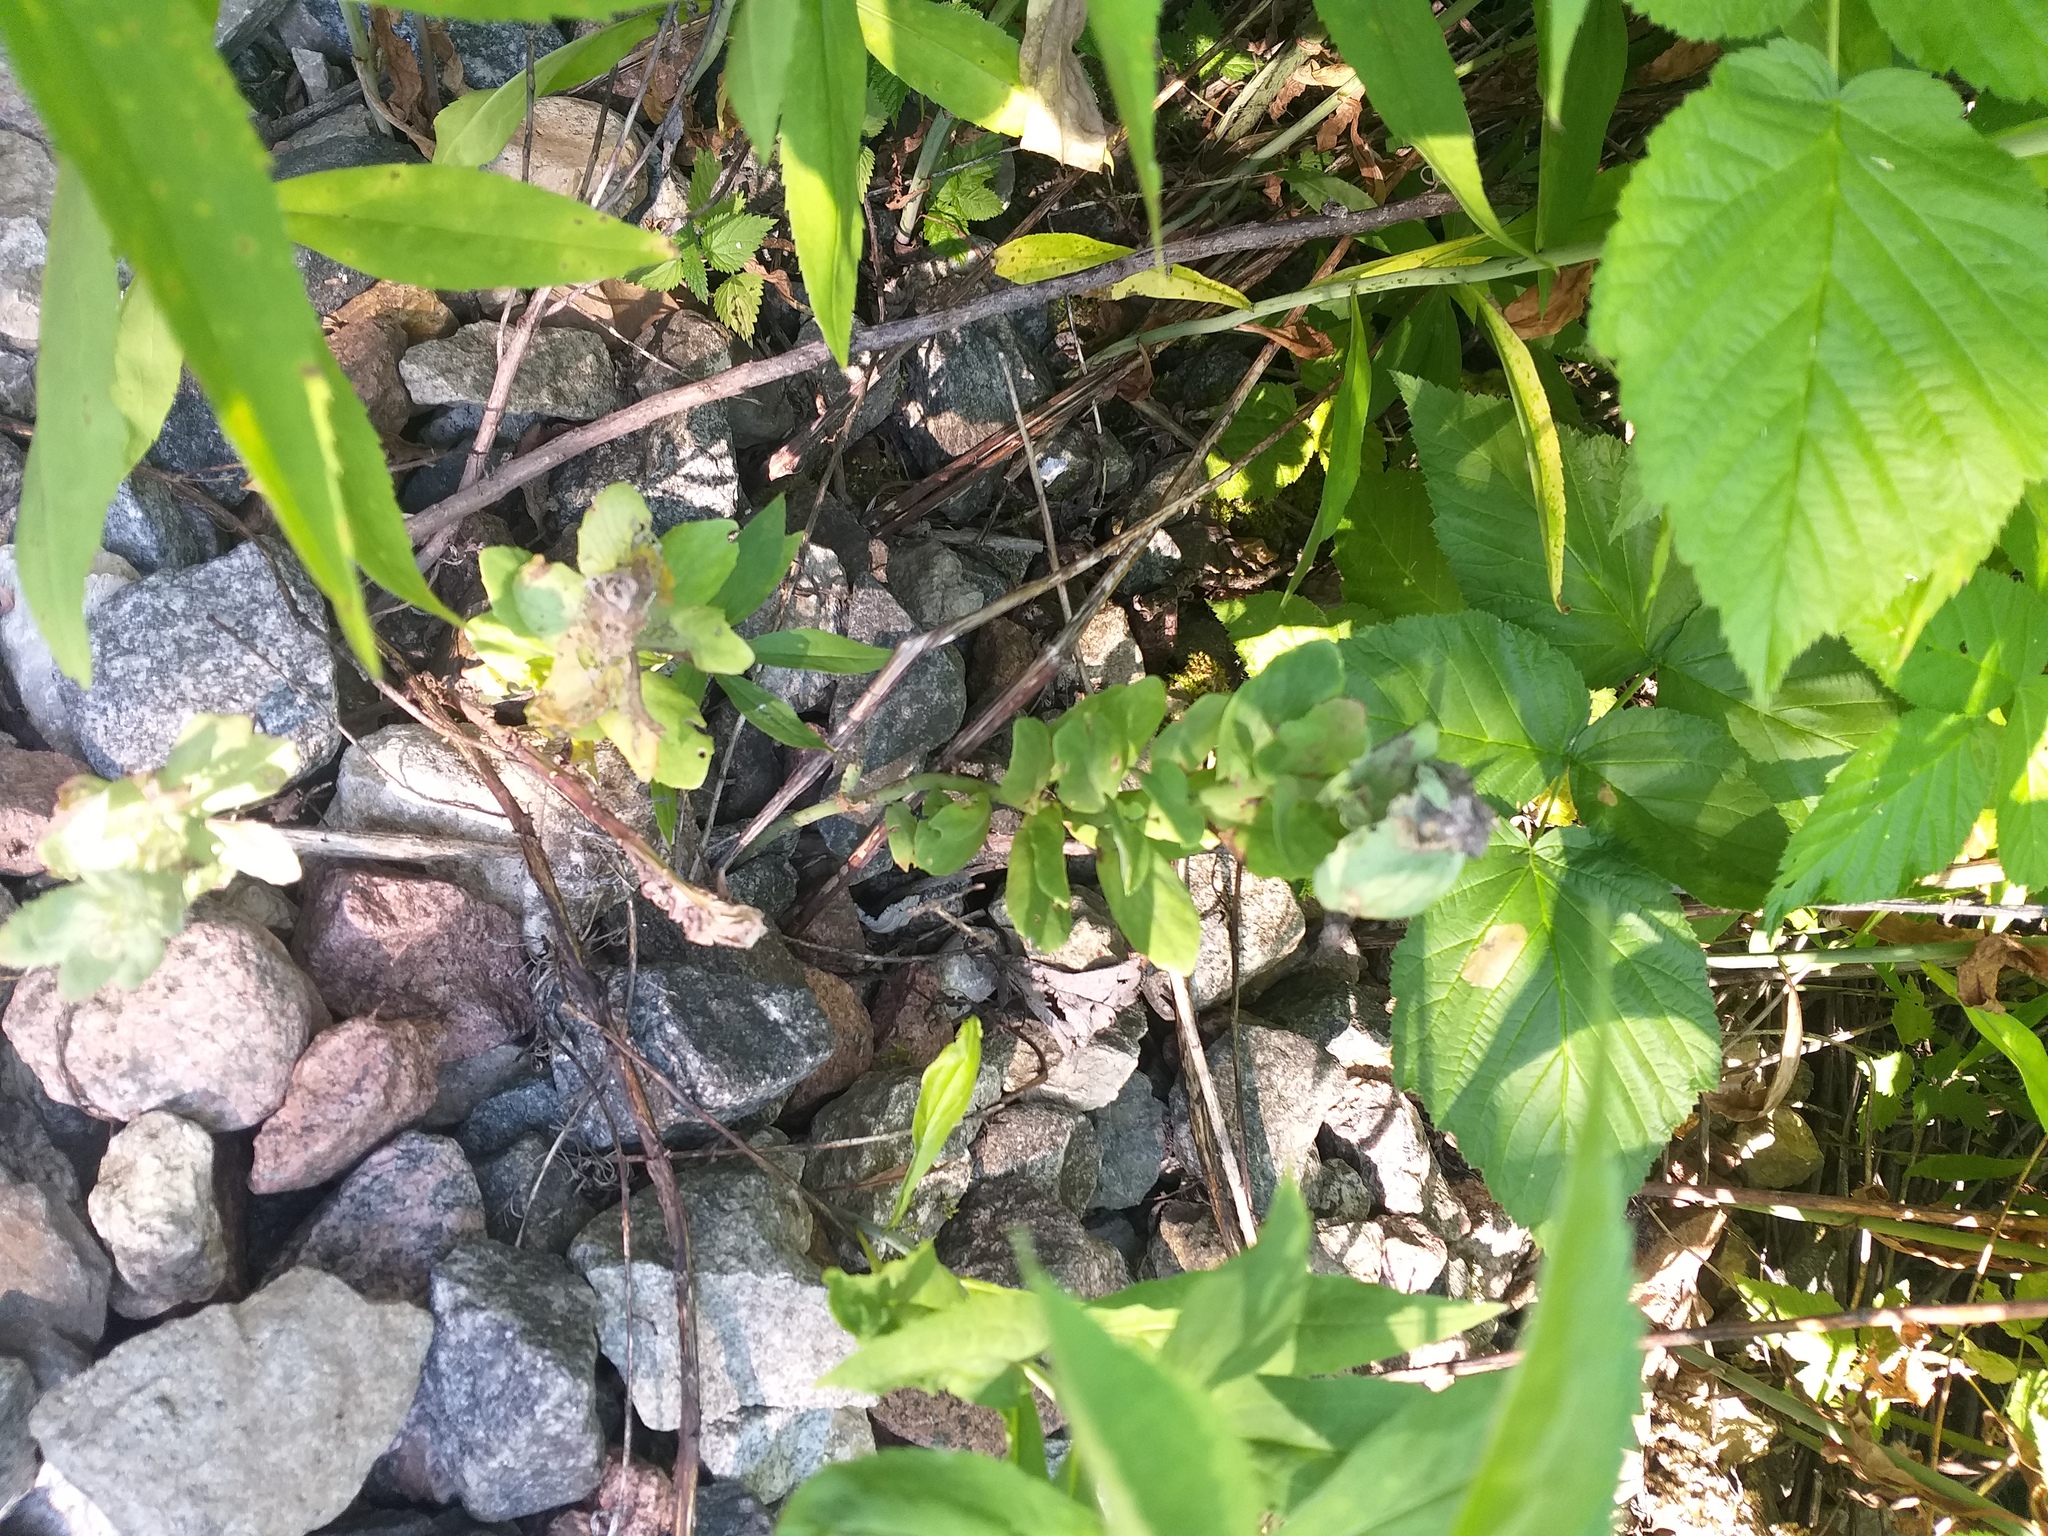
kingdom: Plantae
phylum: Tracheophyta
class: Magnoliopsida
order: Saxifragales
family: Crassulaceae
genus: Hylotelephium
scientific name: Hylotelephium telephium
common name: Live-forever
